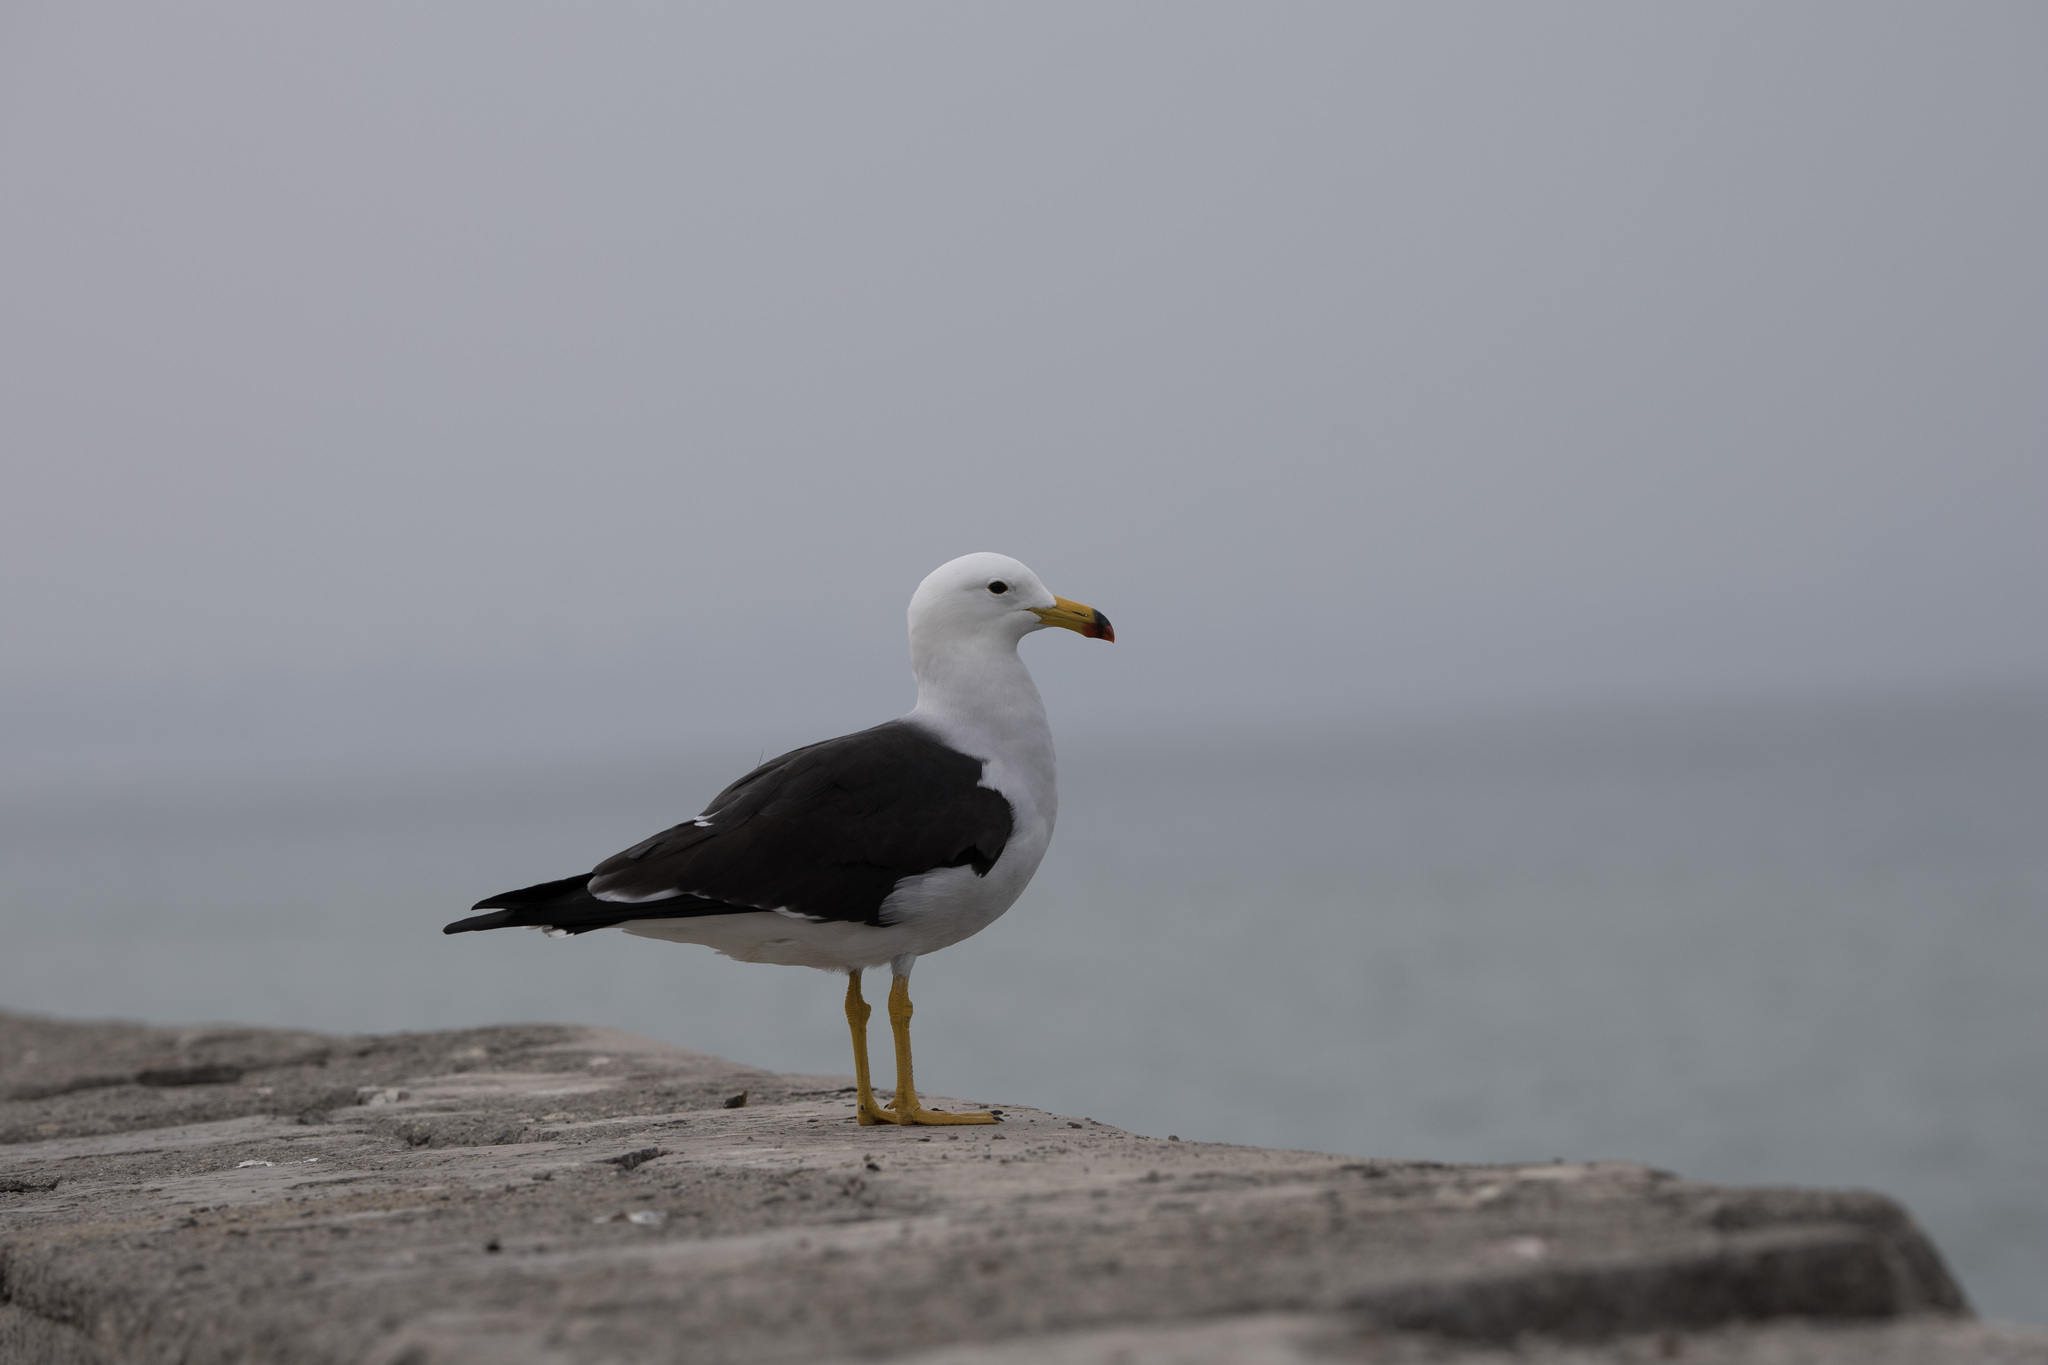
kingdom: Animalia
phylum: Chordata
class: Aves
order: Charadriiformes
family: Laridae
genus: Larus
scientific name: Larus belcheri
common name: Belcher's gull
